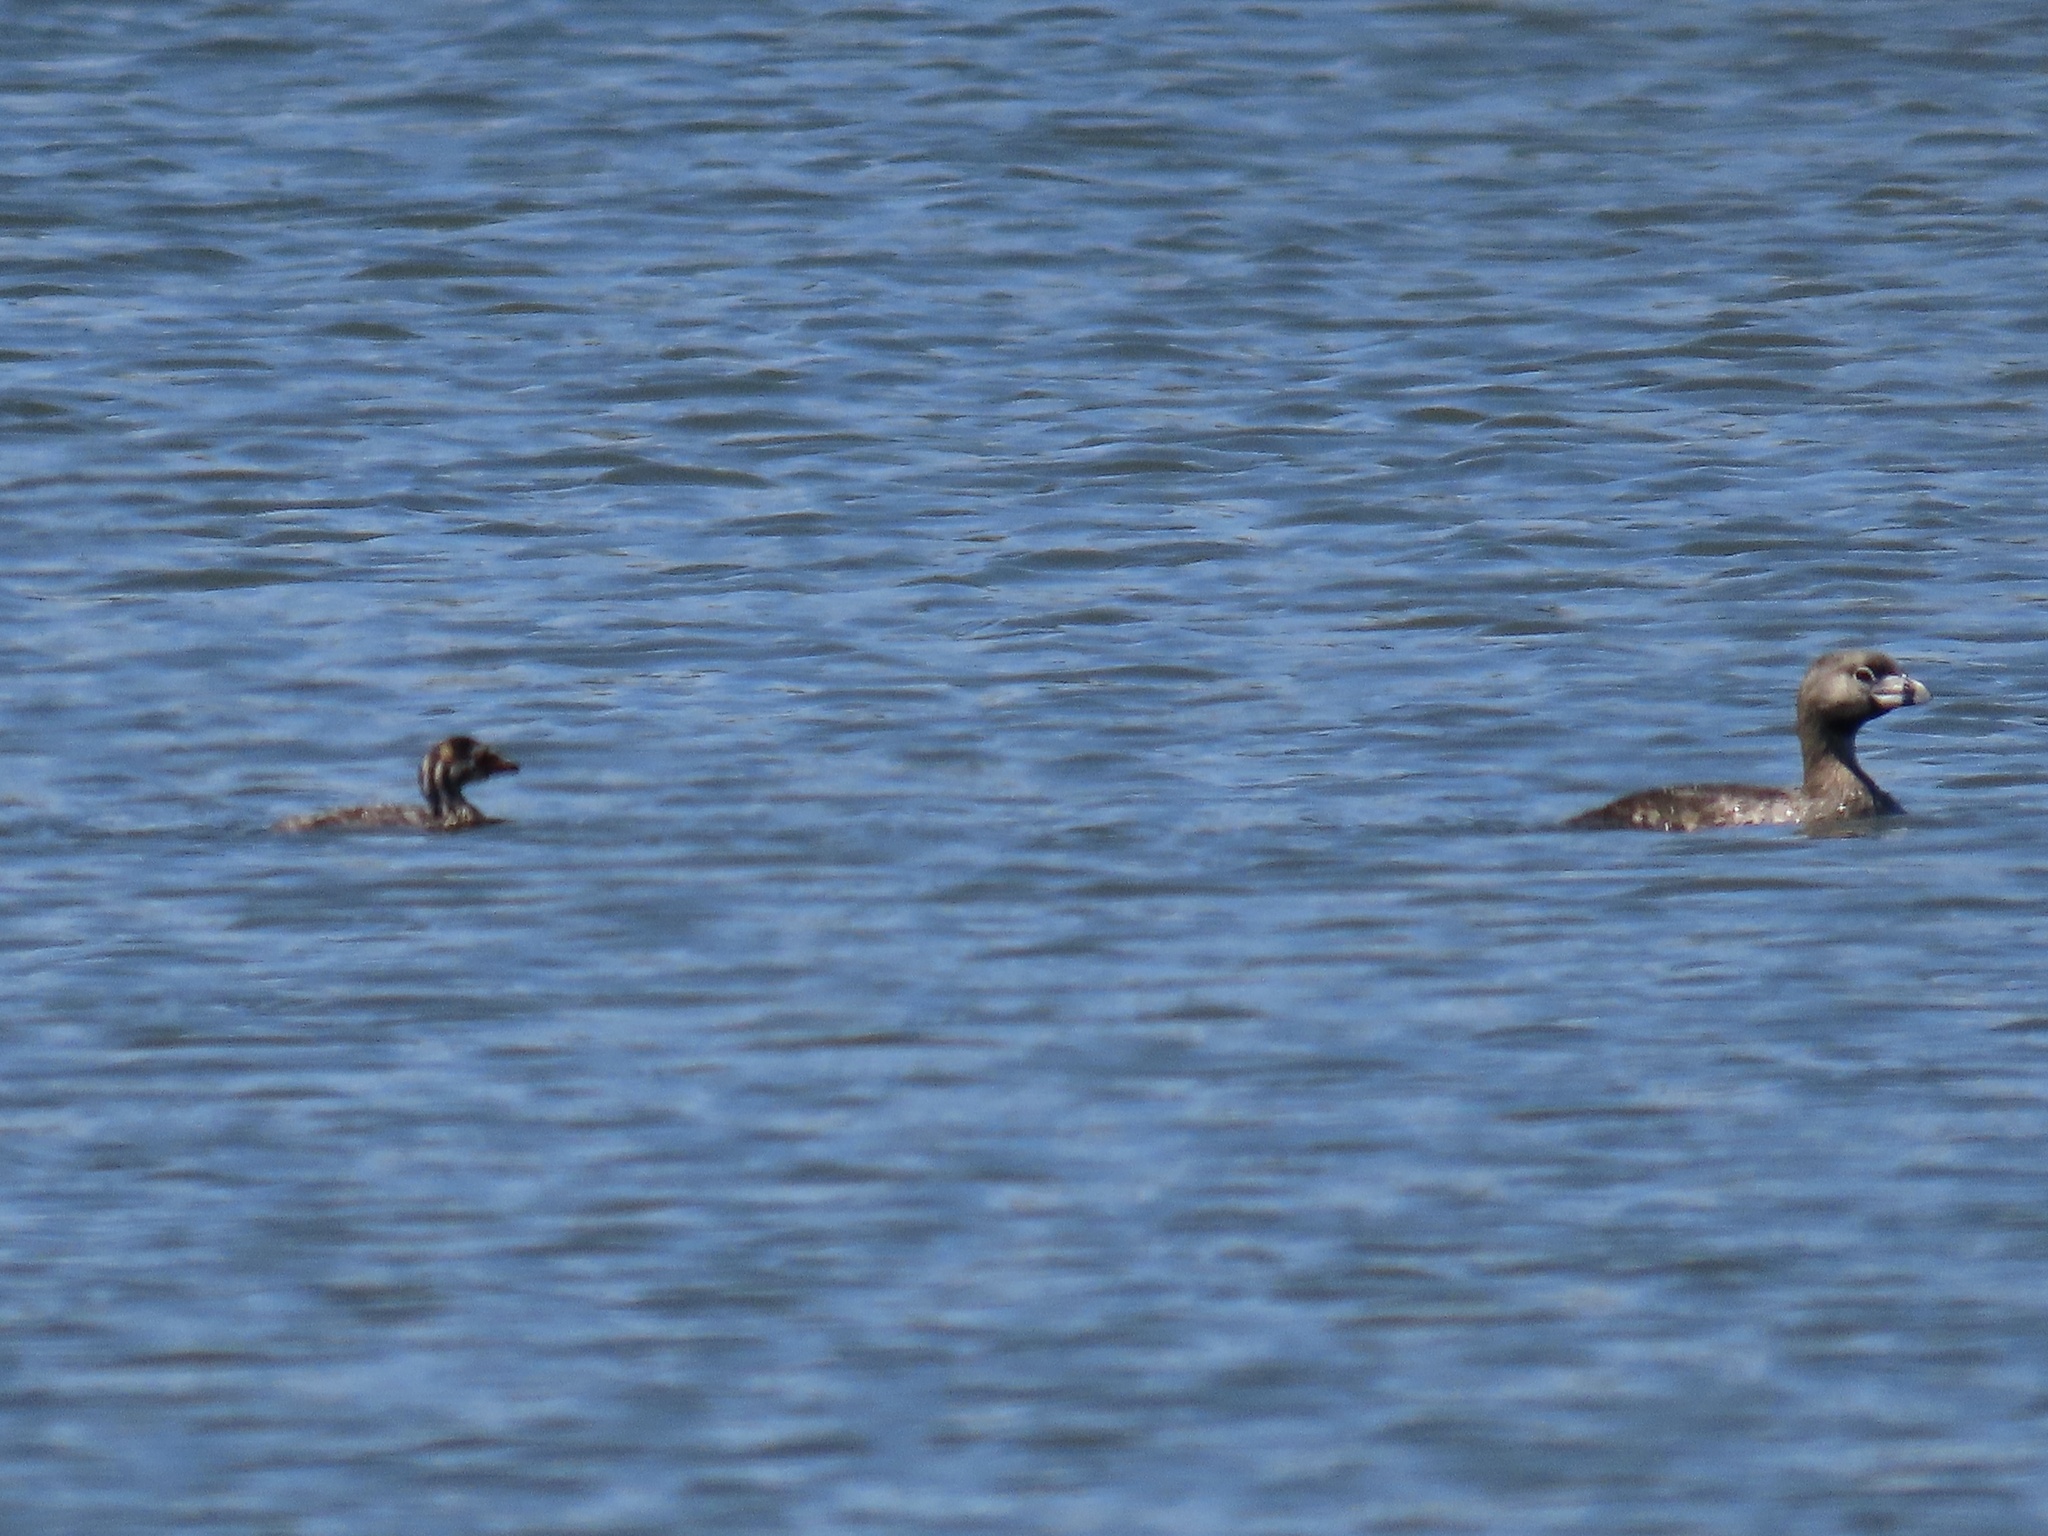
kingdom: Animalia
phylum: Chordata
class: Aves
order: Podicipediformes
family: Podicipedidae
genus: Podilymbus
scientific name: Podilymbus podiceps
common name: Pied-billed grebe
